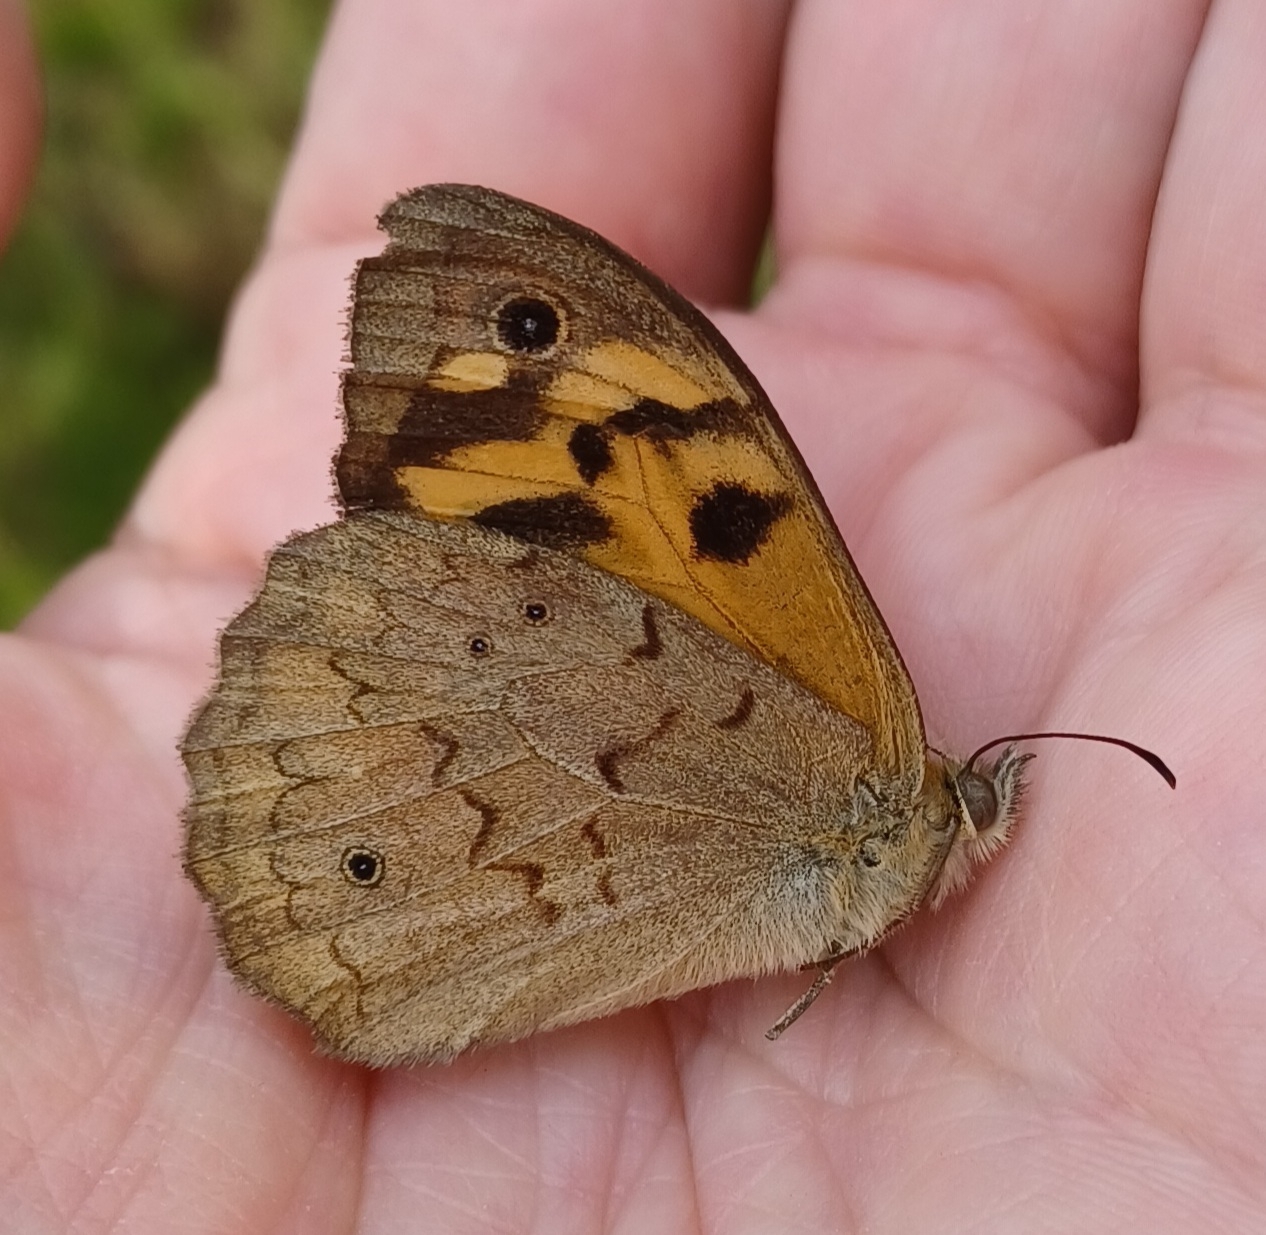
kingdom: Animalia
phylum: Arthropoda
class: Insecta
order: Lepidoptera
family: Nymphalidae
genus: Heteronympha
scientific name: Heteronympha merope
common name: Common brown
